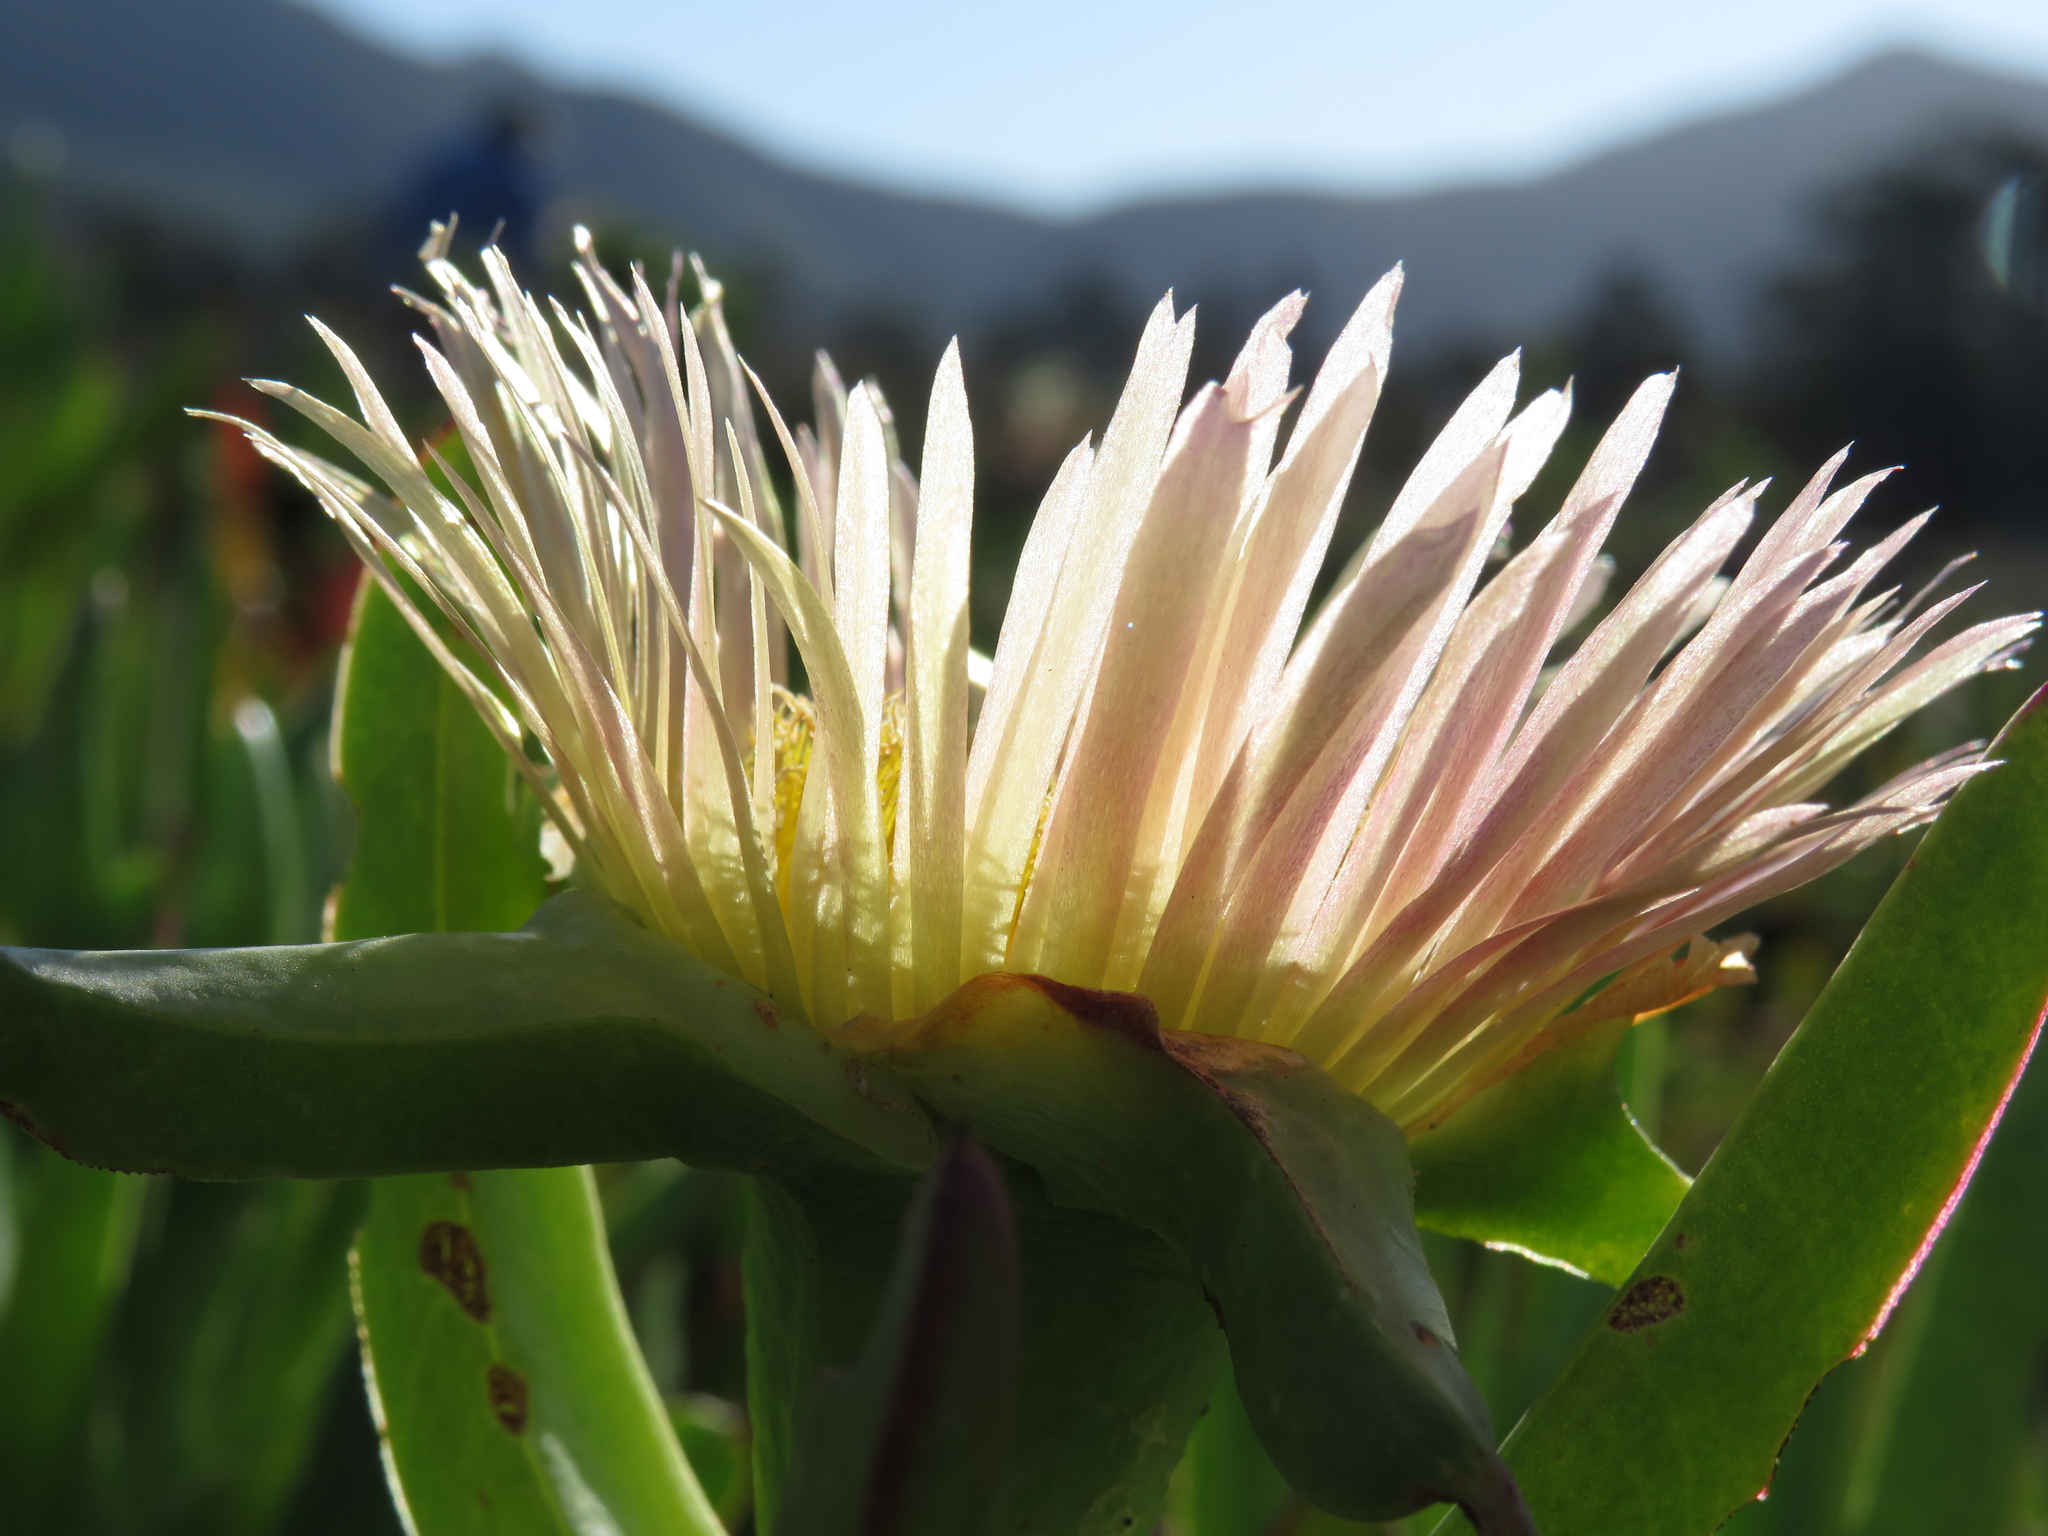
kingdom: Plantae
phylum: Tracheophyta
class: Magnoliopsida
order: Caryophyllales
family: Aizoaceae
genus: Carpobrotus
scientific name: Carpobrotus edulis
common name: Hottentot-fig
